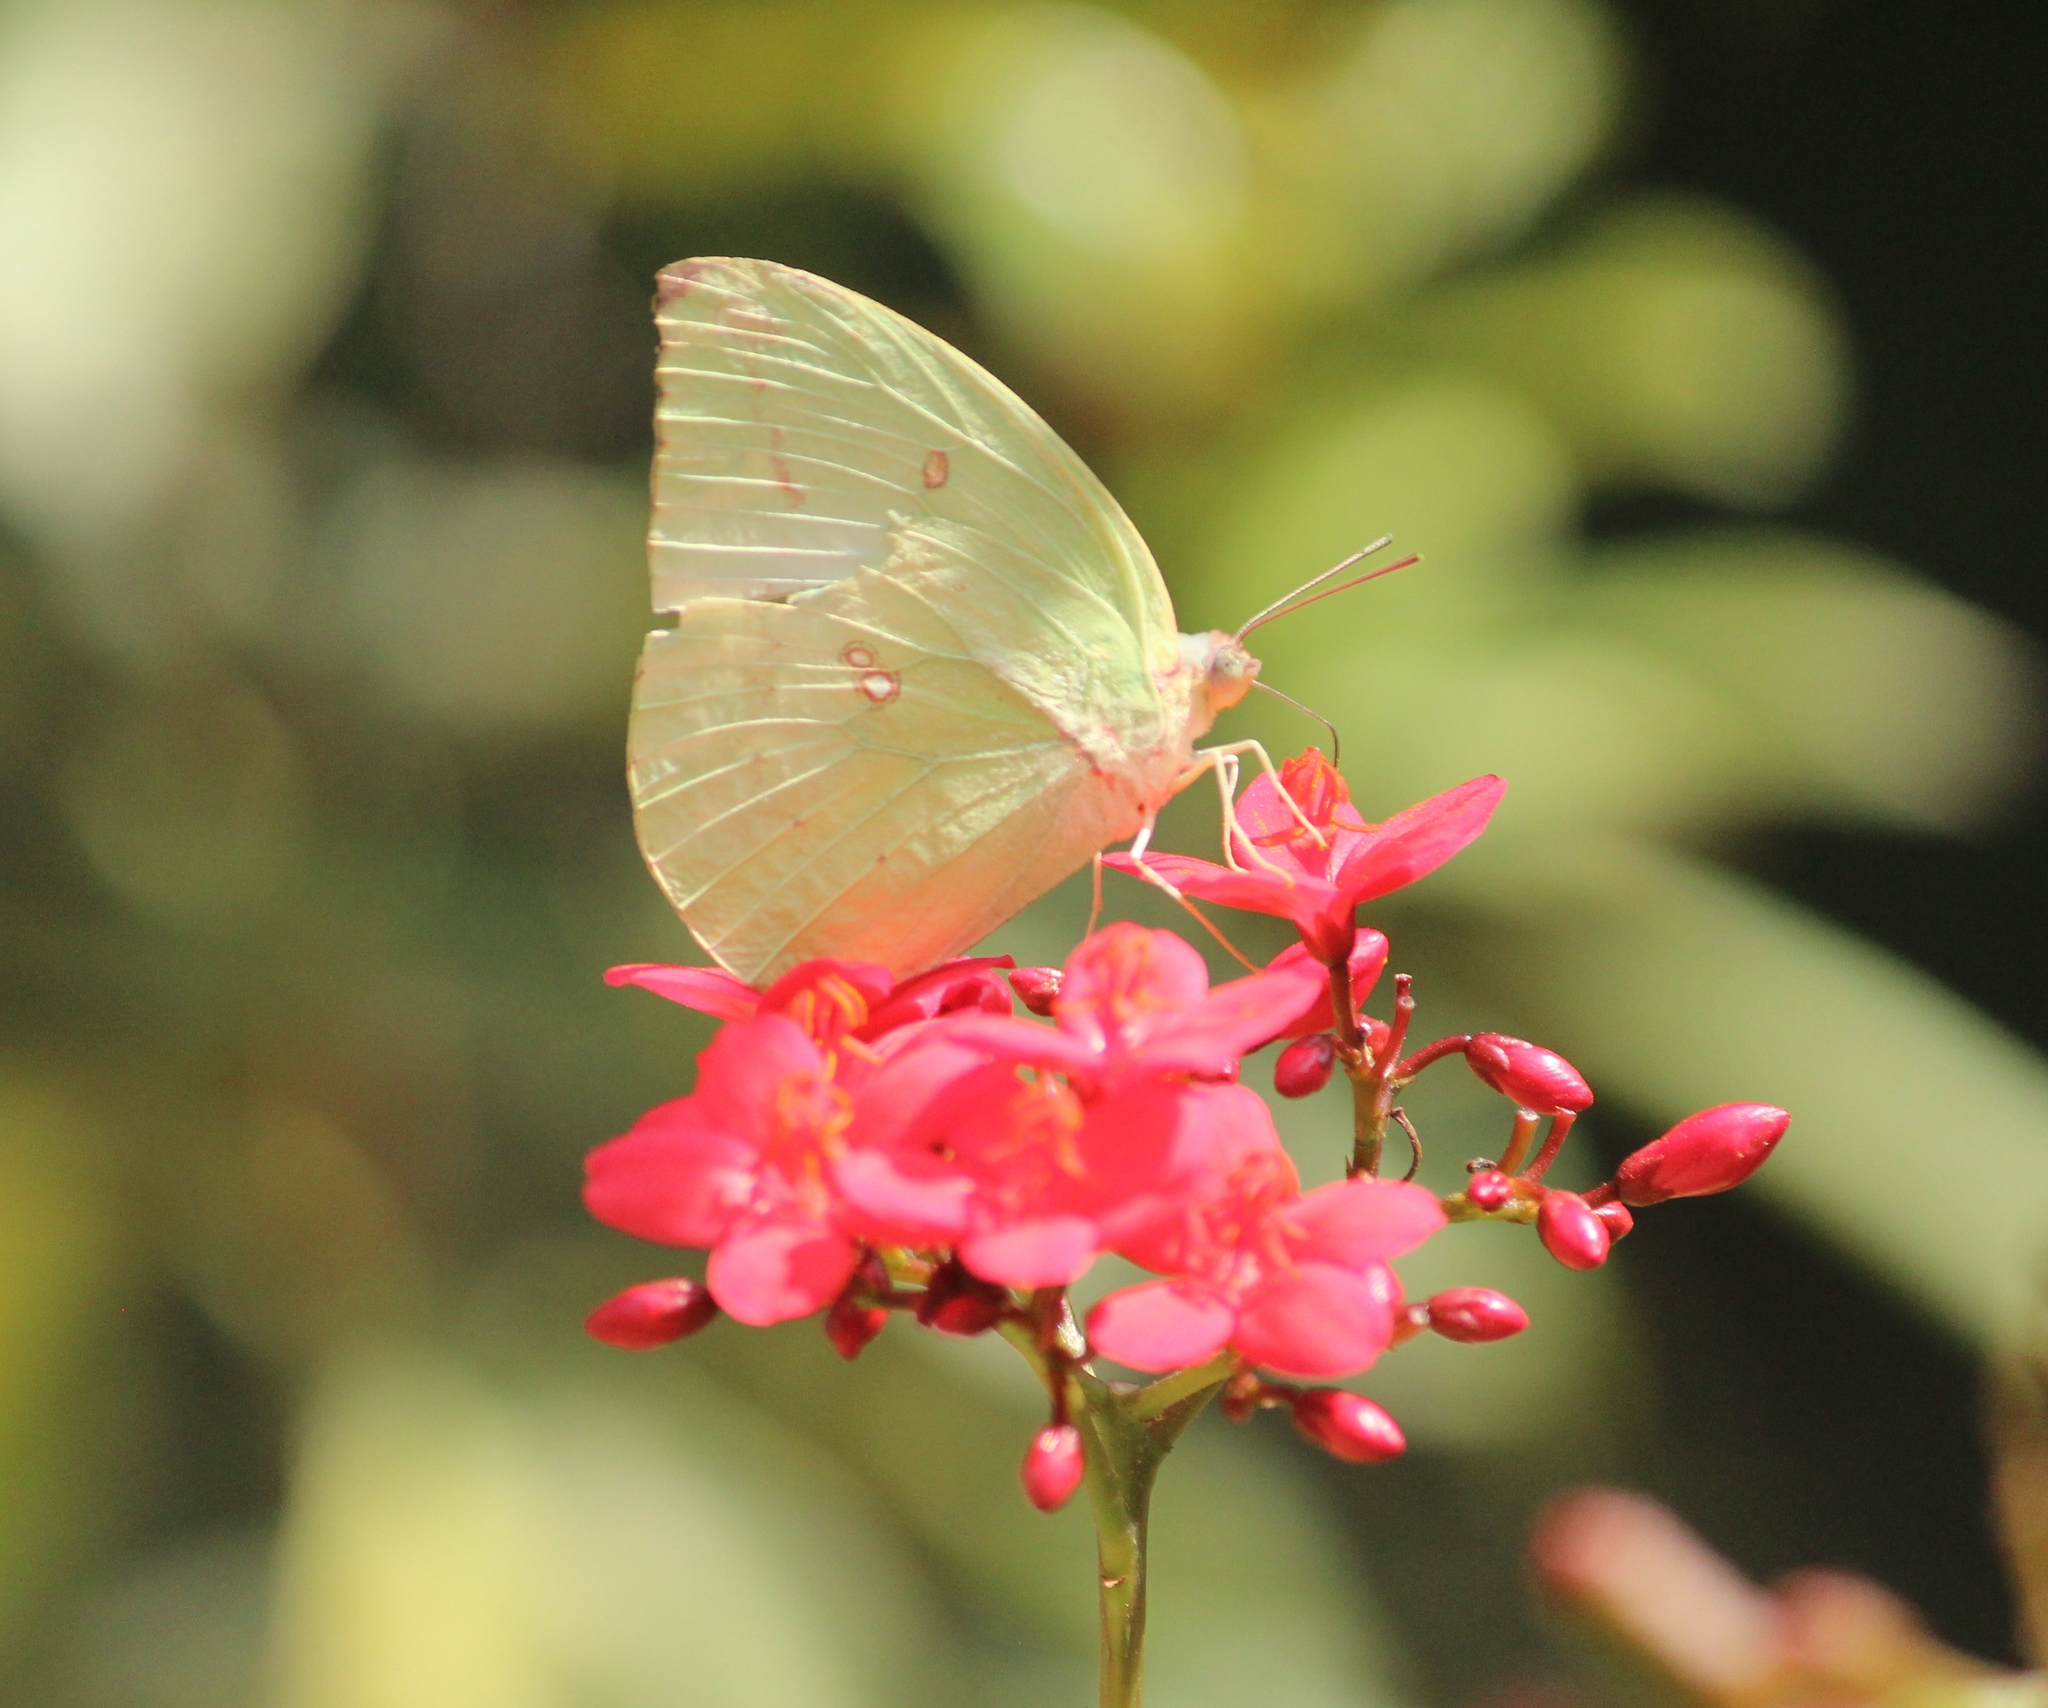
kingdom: Animalia
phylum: Arthropoda
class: Insecta
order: Lepidoptera
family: Pieridae
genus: Catopsilia
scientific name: Catopsilia pomona
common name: Common emigrant
